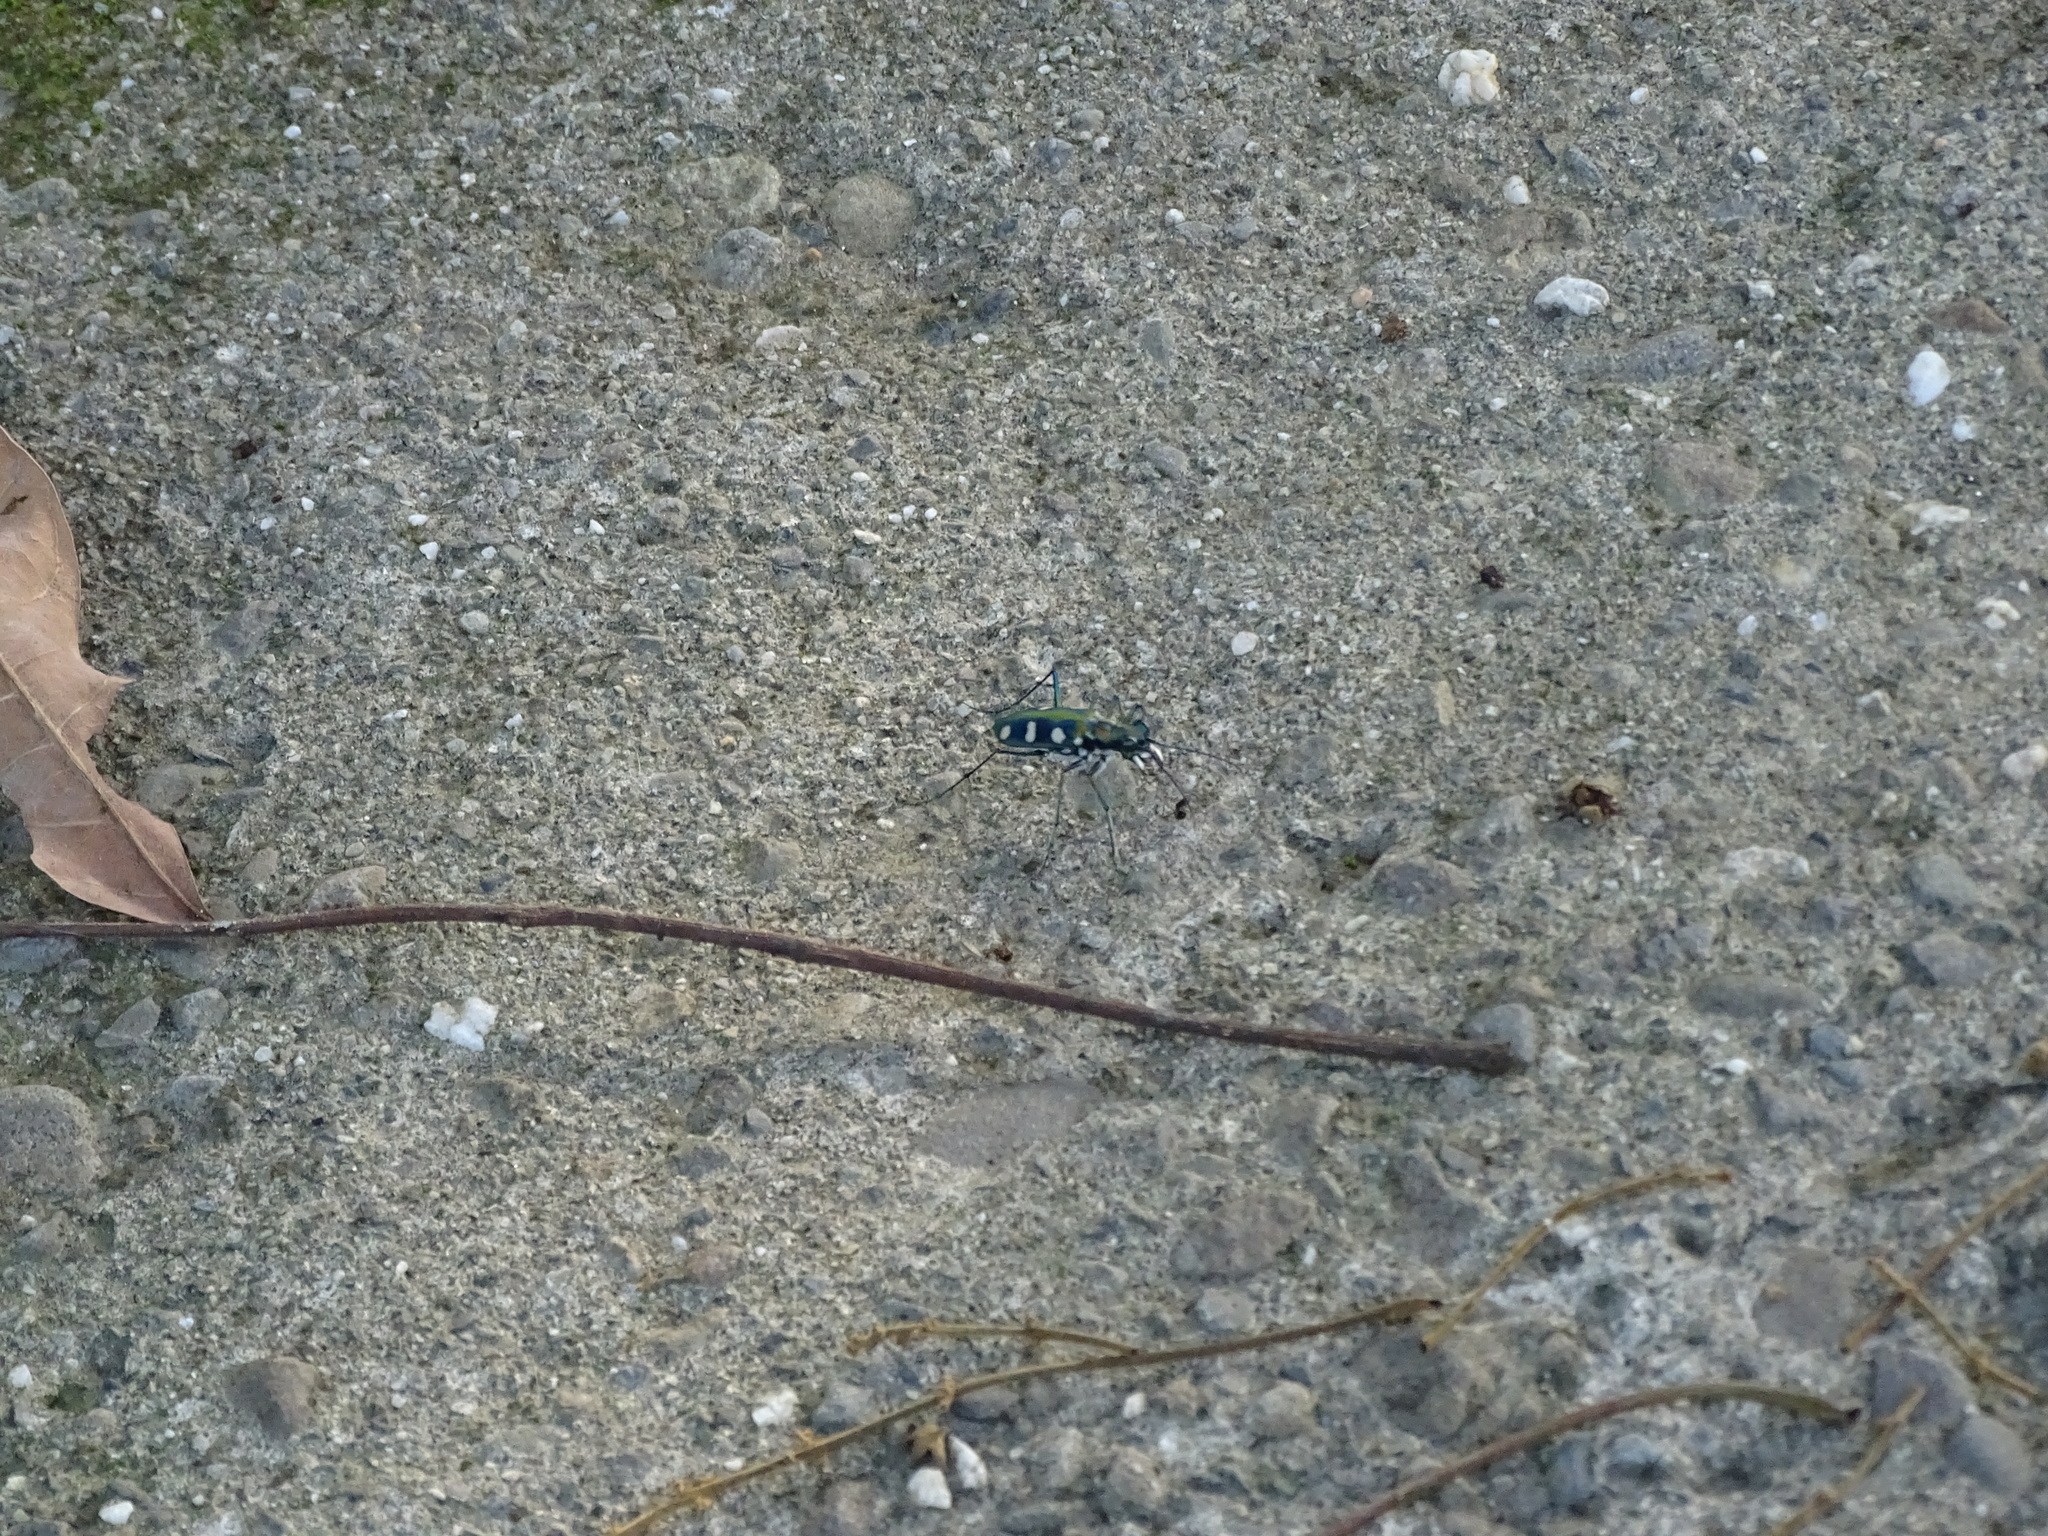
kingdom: Animalia
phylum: Arthropoda
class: Insecta
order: Coleoptera
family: Carabidae
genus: Cicindela
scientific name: Cicindela batesi
